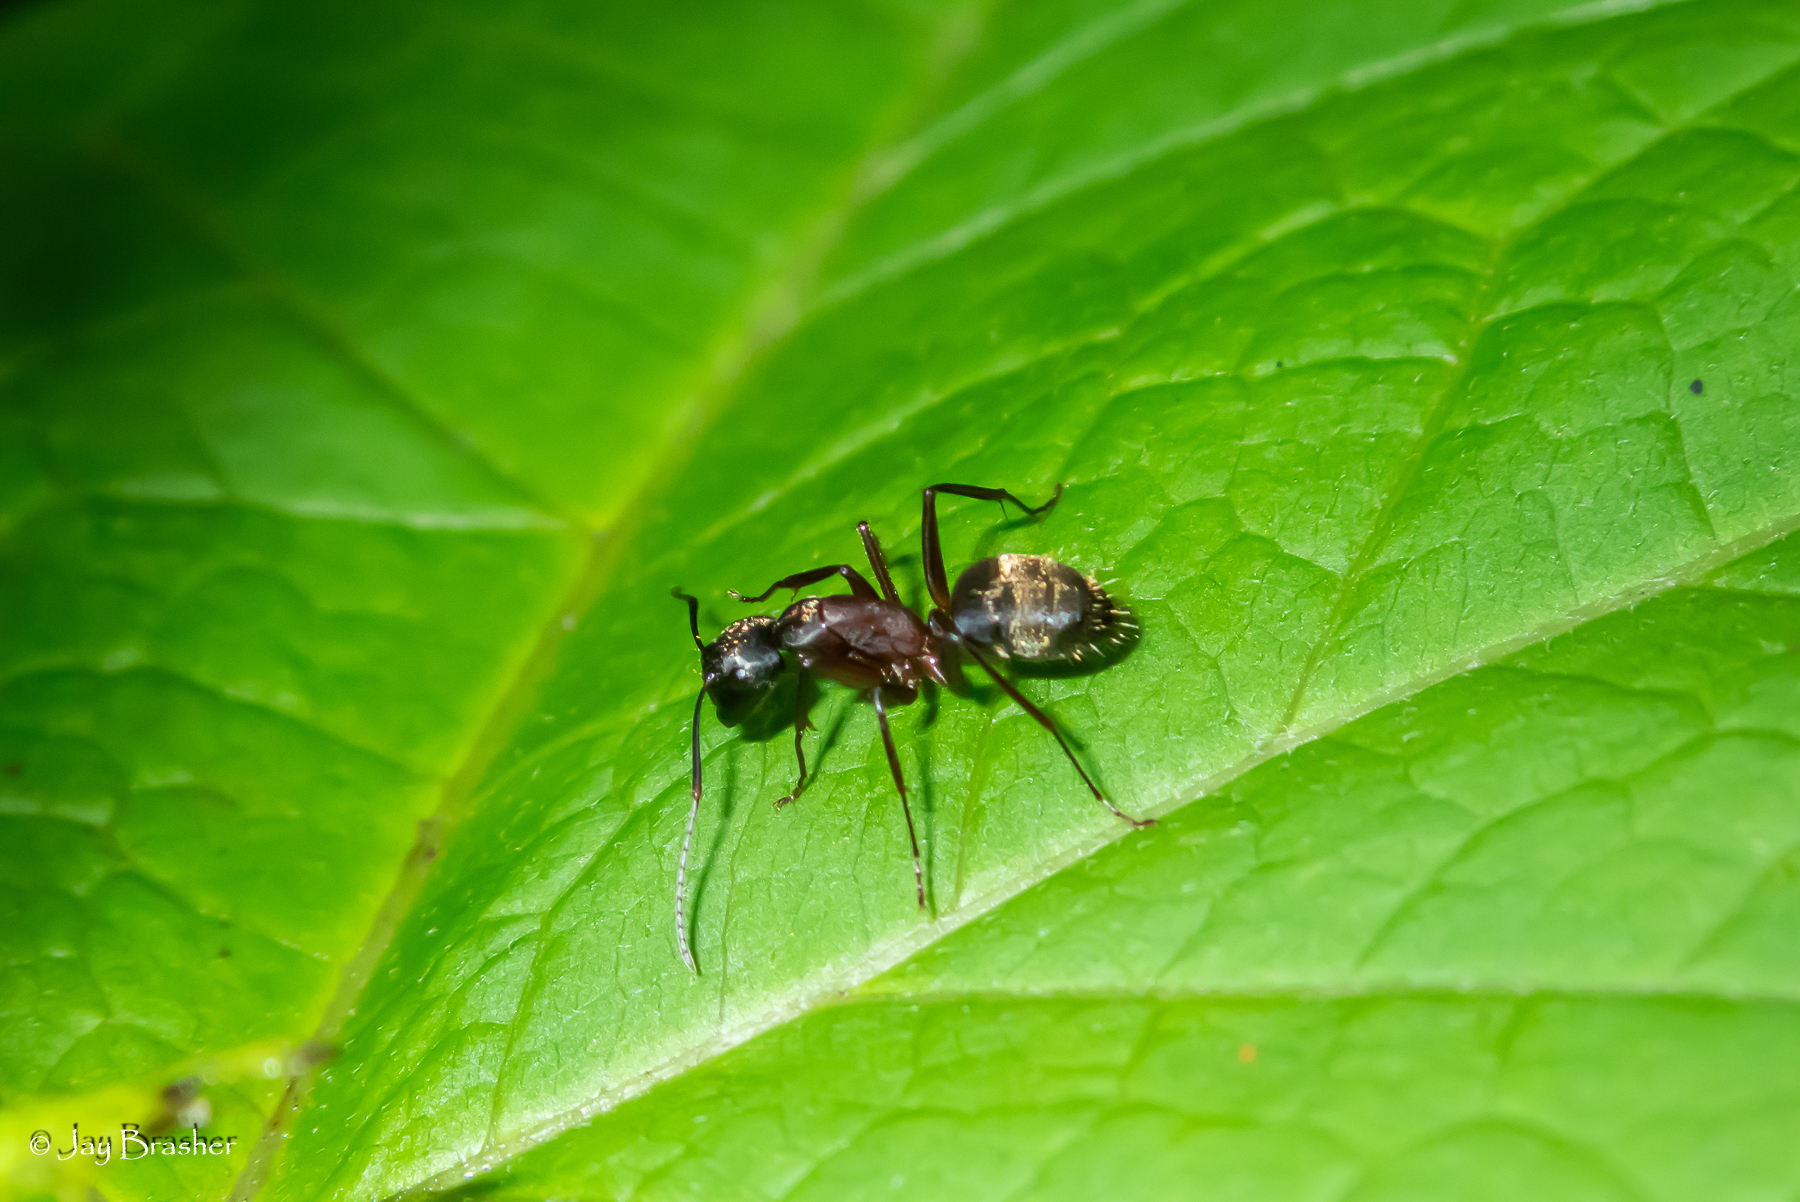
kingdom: Animalia
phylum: Arthropoda
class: Insecta
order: Hymenoptera
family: Formicidae
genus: Camponotus
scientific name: Camponotus chromaiodes
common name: Red carpenter ant
